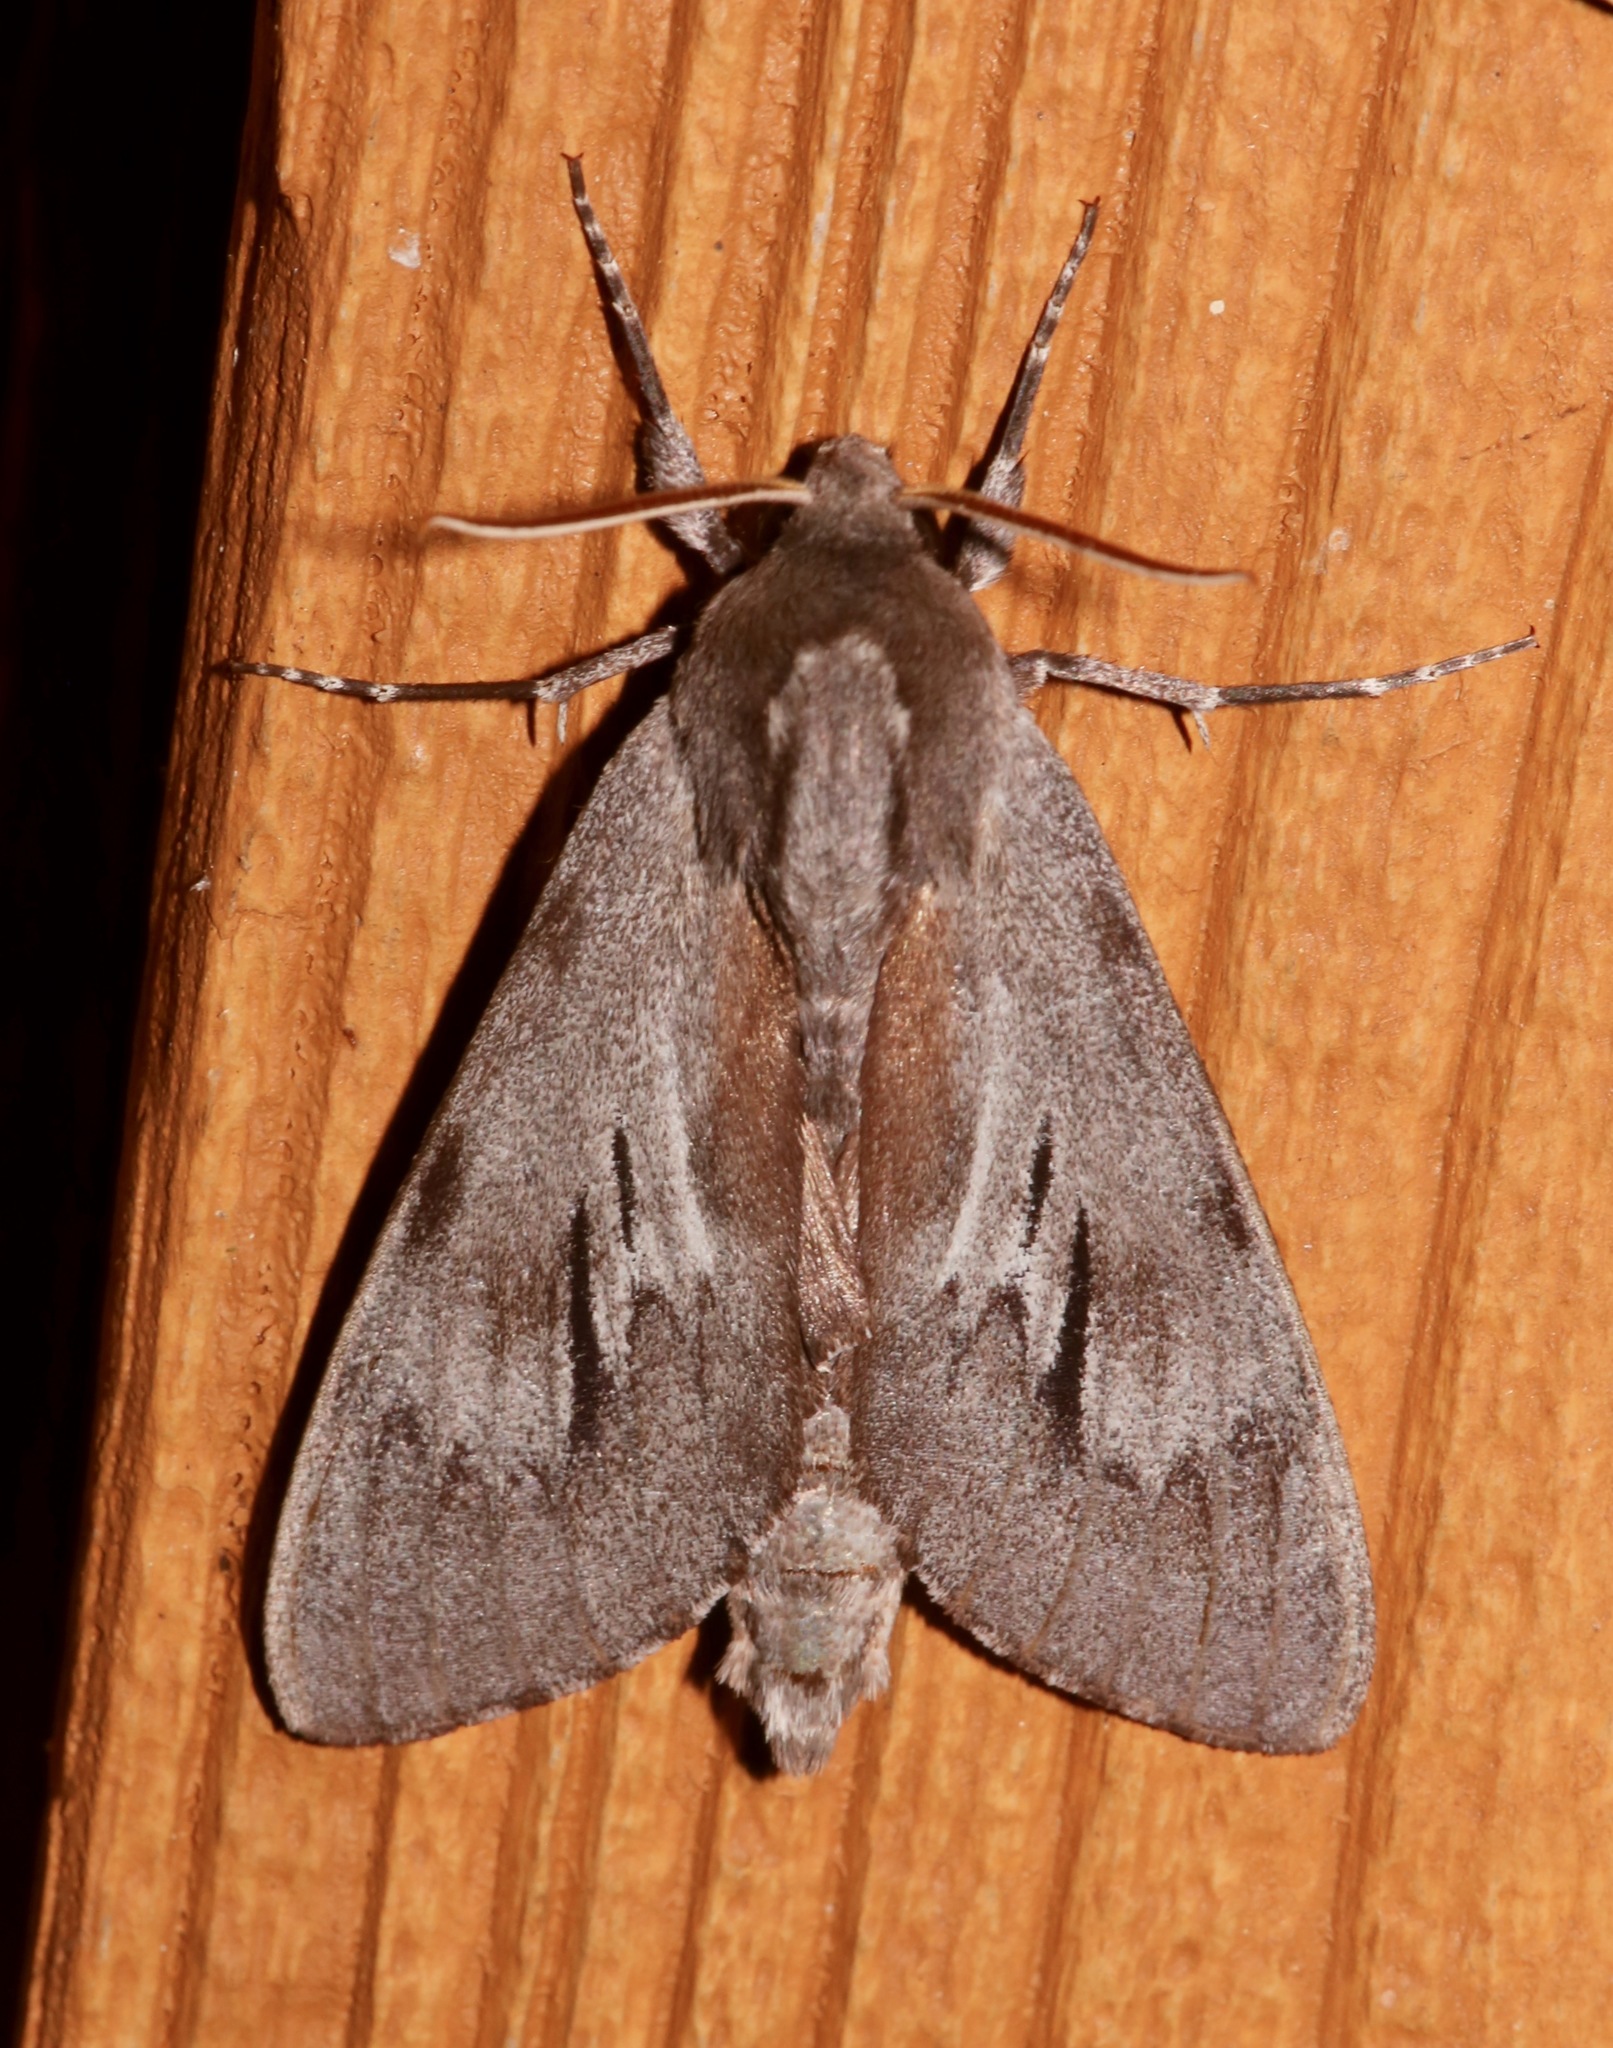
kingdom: Animalia
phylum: Arthropoda
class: Insecta
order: Lepidoptera
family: Sphingidae
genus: Lapara
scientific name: Lapara coniferarum
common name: Southern pine sphinx
